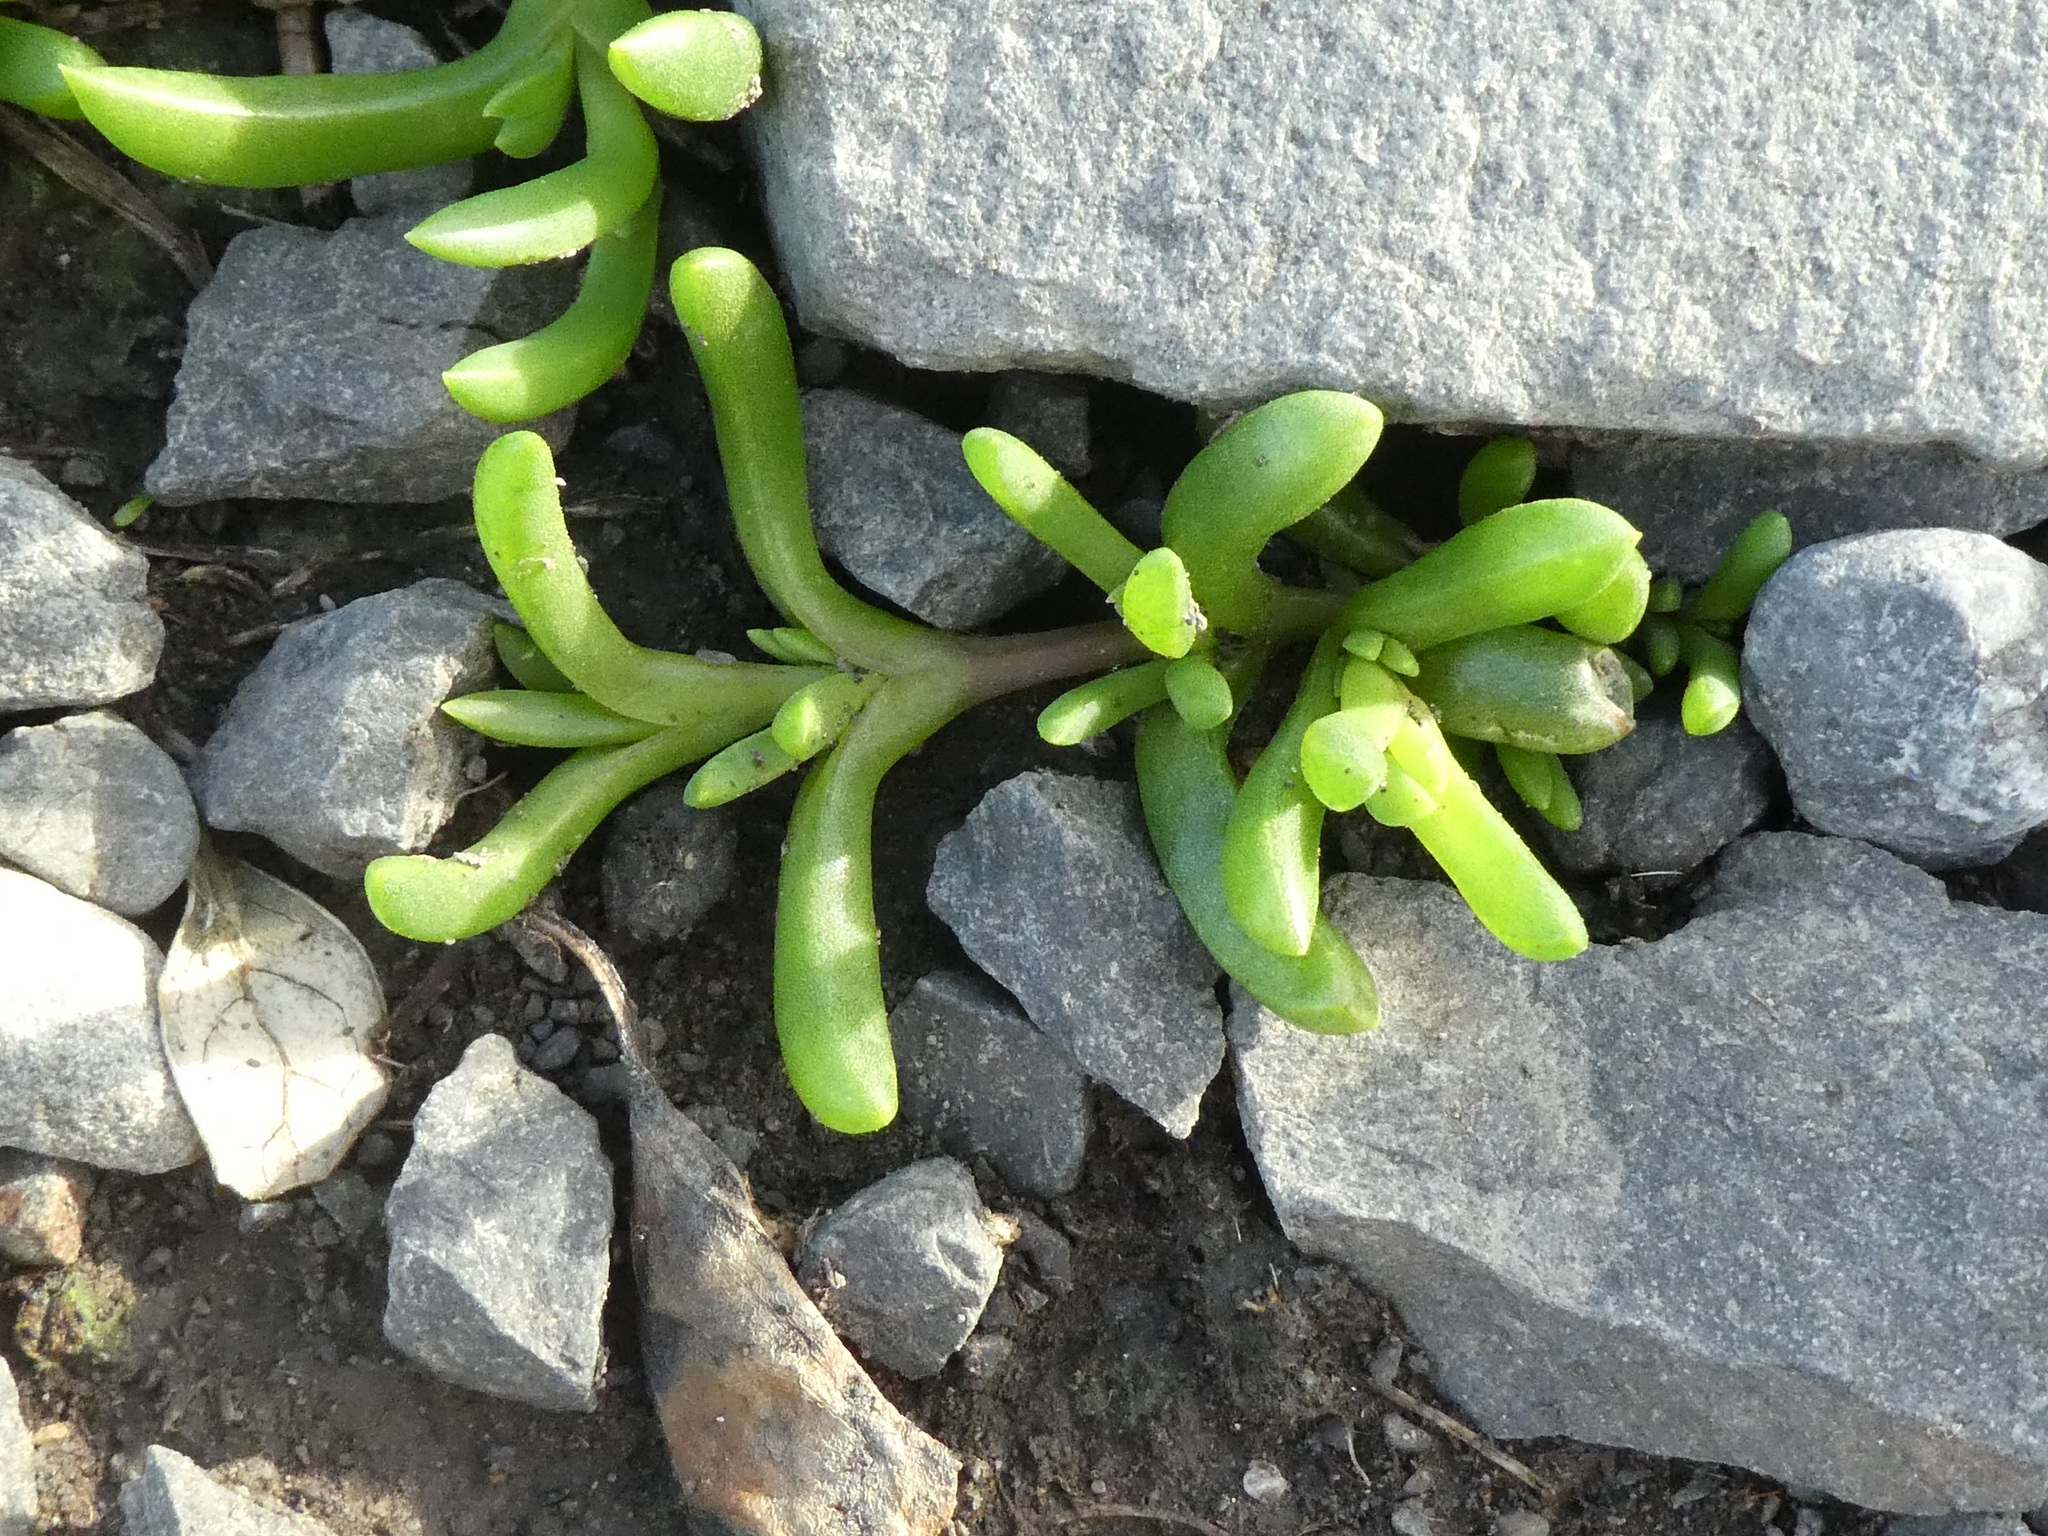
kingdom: Plantae
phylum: Tracheophyta
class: Magnoliopsida
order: Caryophyllales
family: Aizoaceae
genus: Disphyma
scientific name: Disphyma australe
